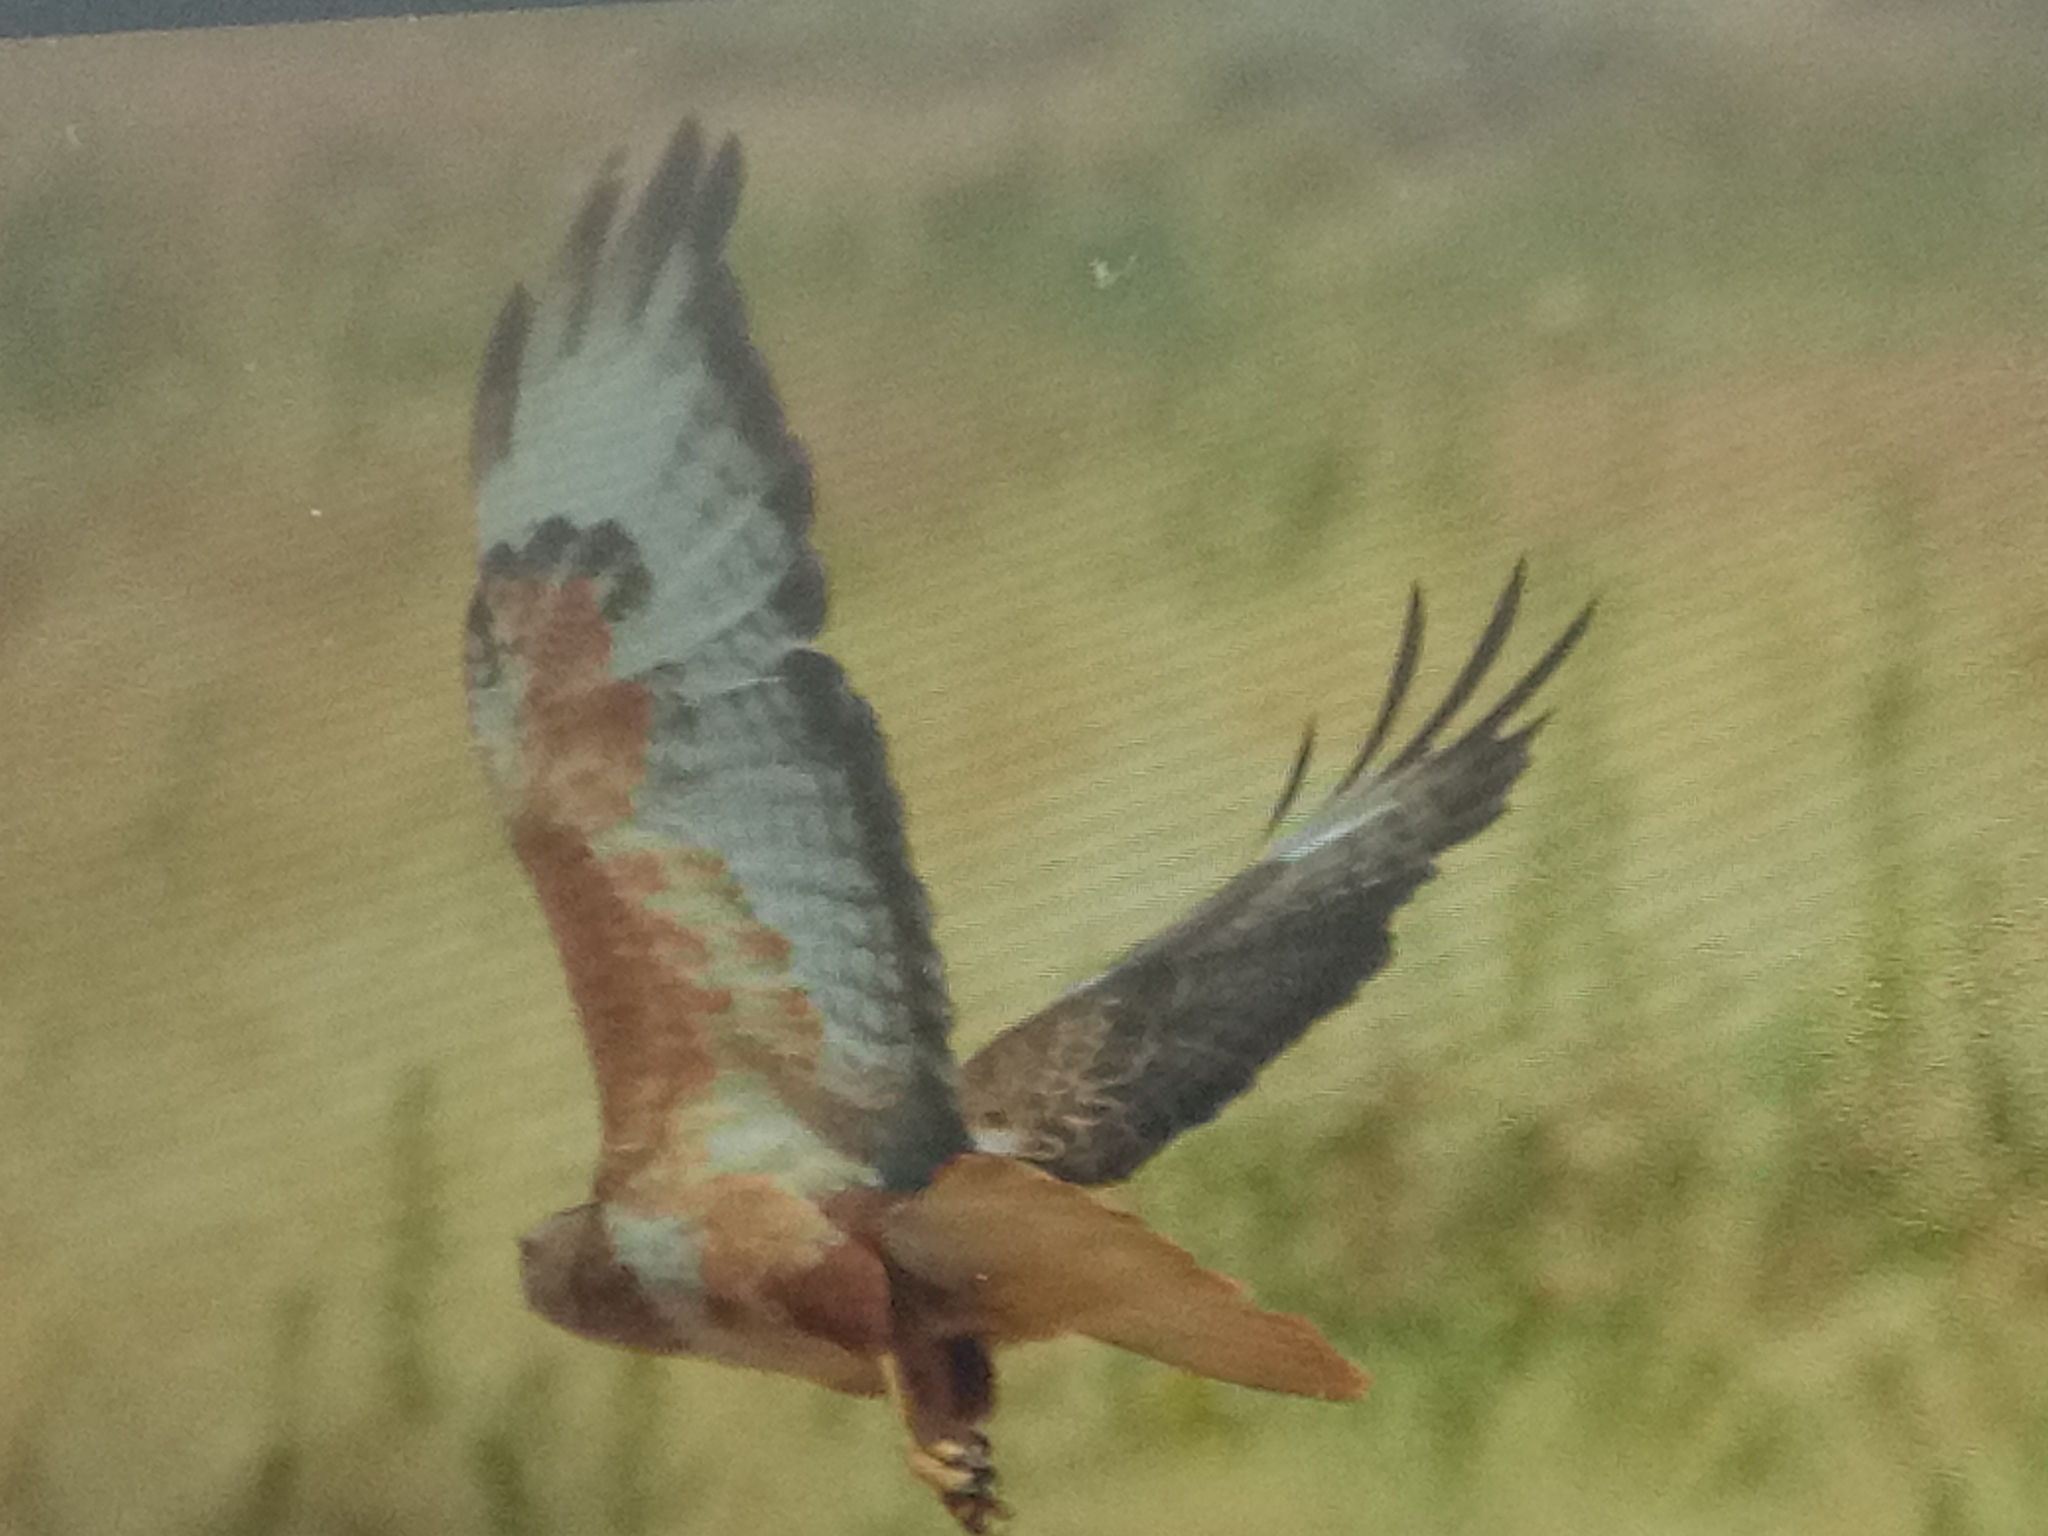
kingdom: Animalia
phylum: Chordata
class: Aves
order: Accipitriformes
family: Accipitridae
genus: Buteo
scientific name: Buteo rufinus
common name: Long-legged buzzard
